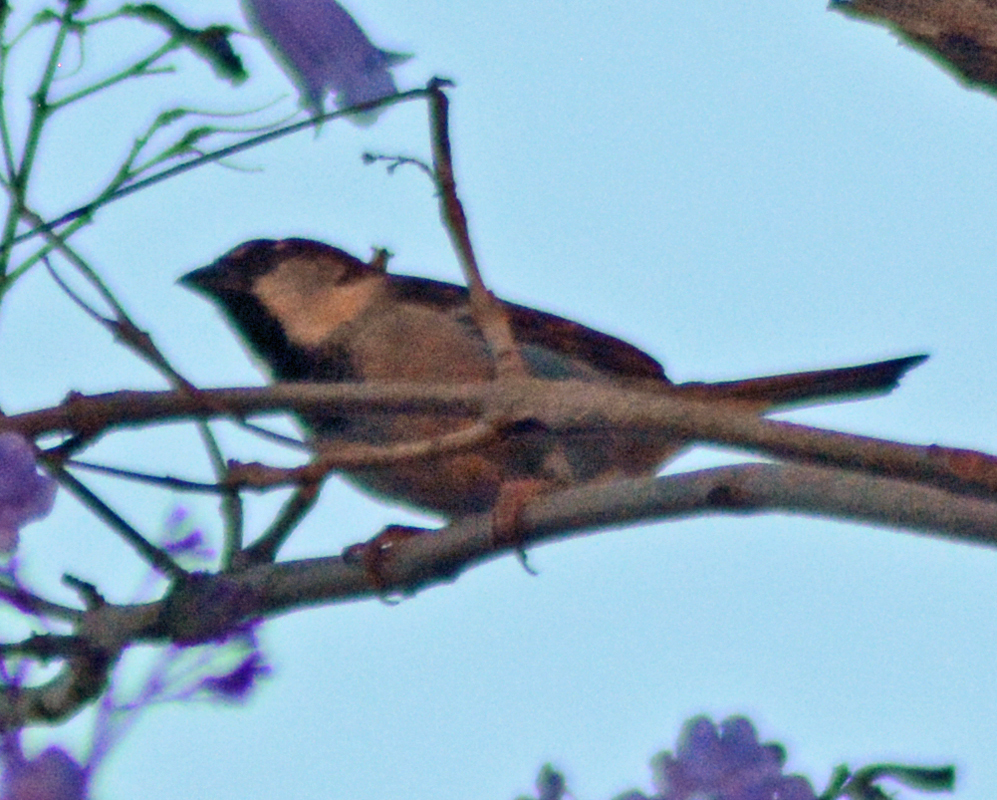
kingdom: Animalia
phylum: Chordata
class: Aves
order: Passeriformes
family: Passeridae
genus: Passer
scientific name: Passer domesticus
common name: House sparrow
